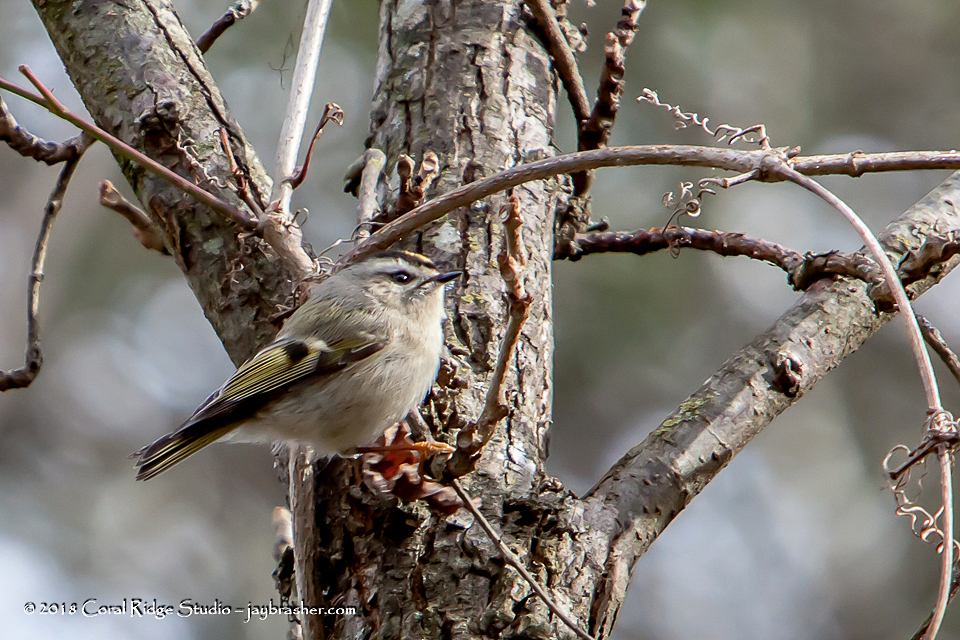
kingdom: Animalia
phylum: Chordata
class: Aves
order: Passeriformes
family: Regulidae
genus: Regulus
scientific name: Regulus satrapa
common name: Golden-crowned kinglet
